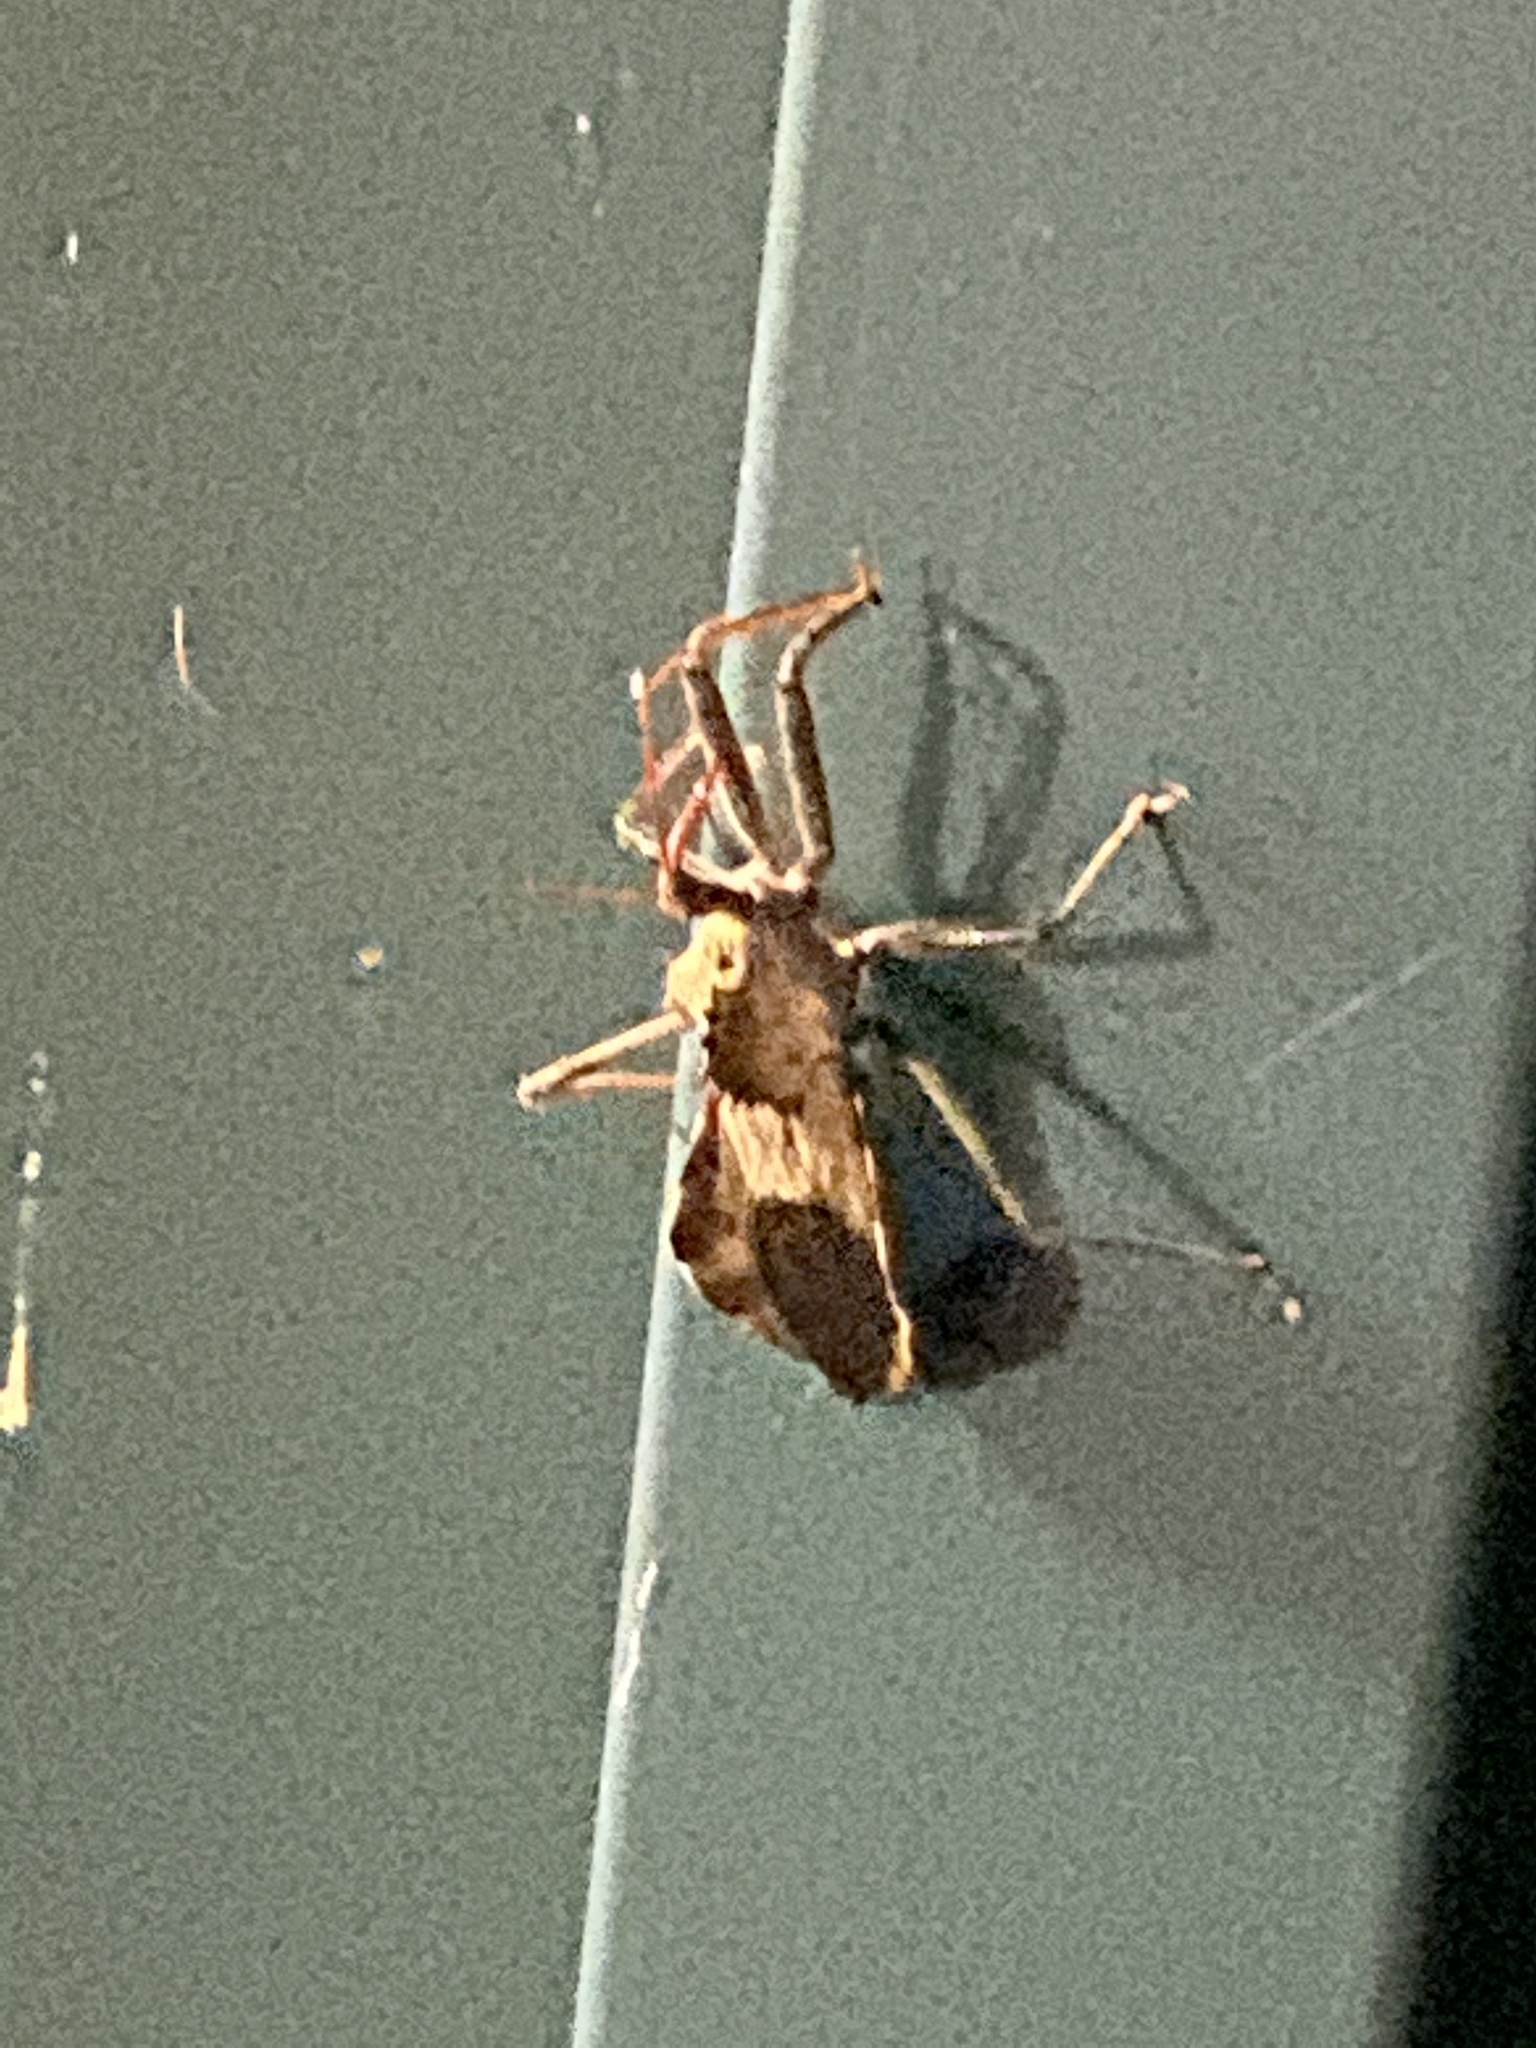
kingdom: Animalia
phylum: Arthropoda
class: Insecta
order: Hemiptera
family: Reduviidae
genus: Arilus
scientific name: Arilus cristatus
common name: North american wheel bug
